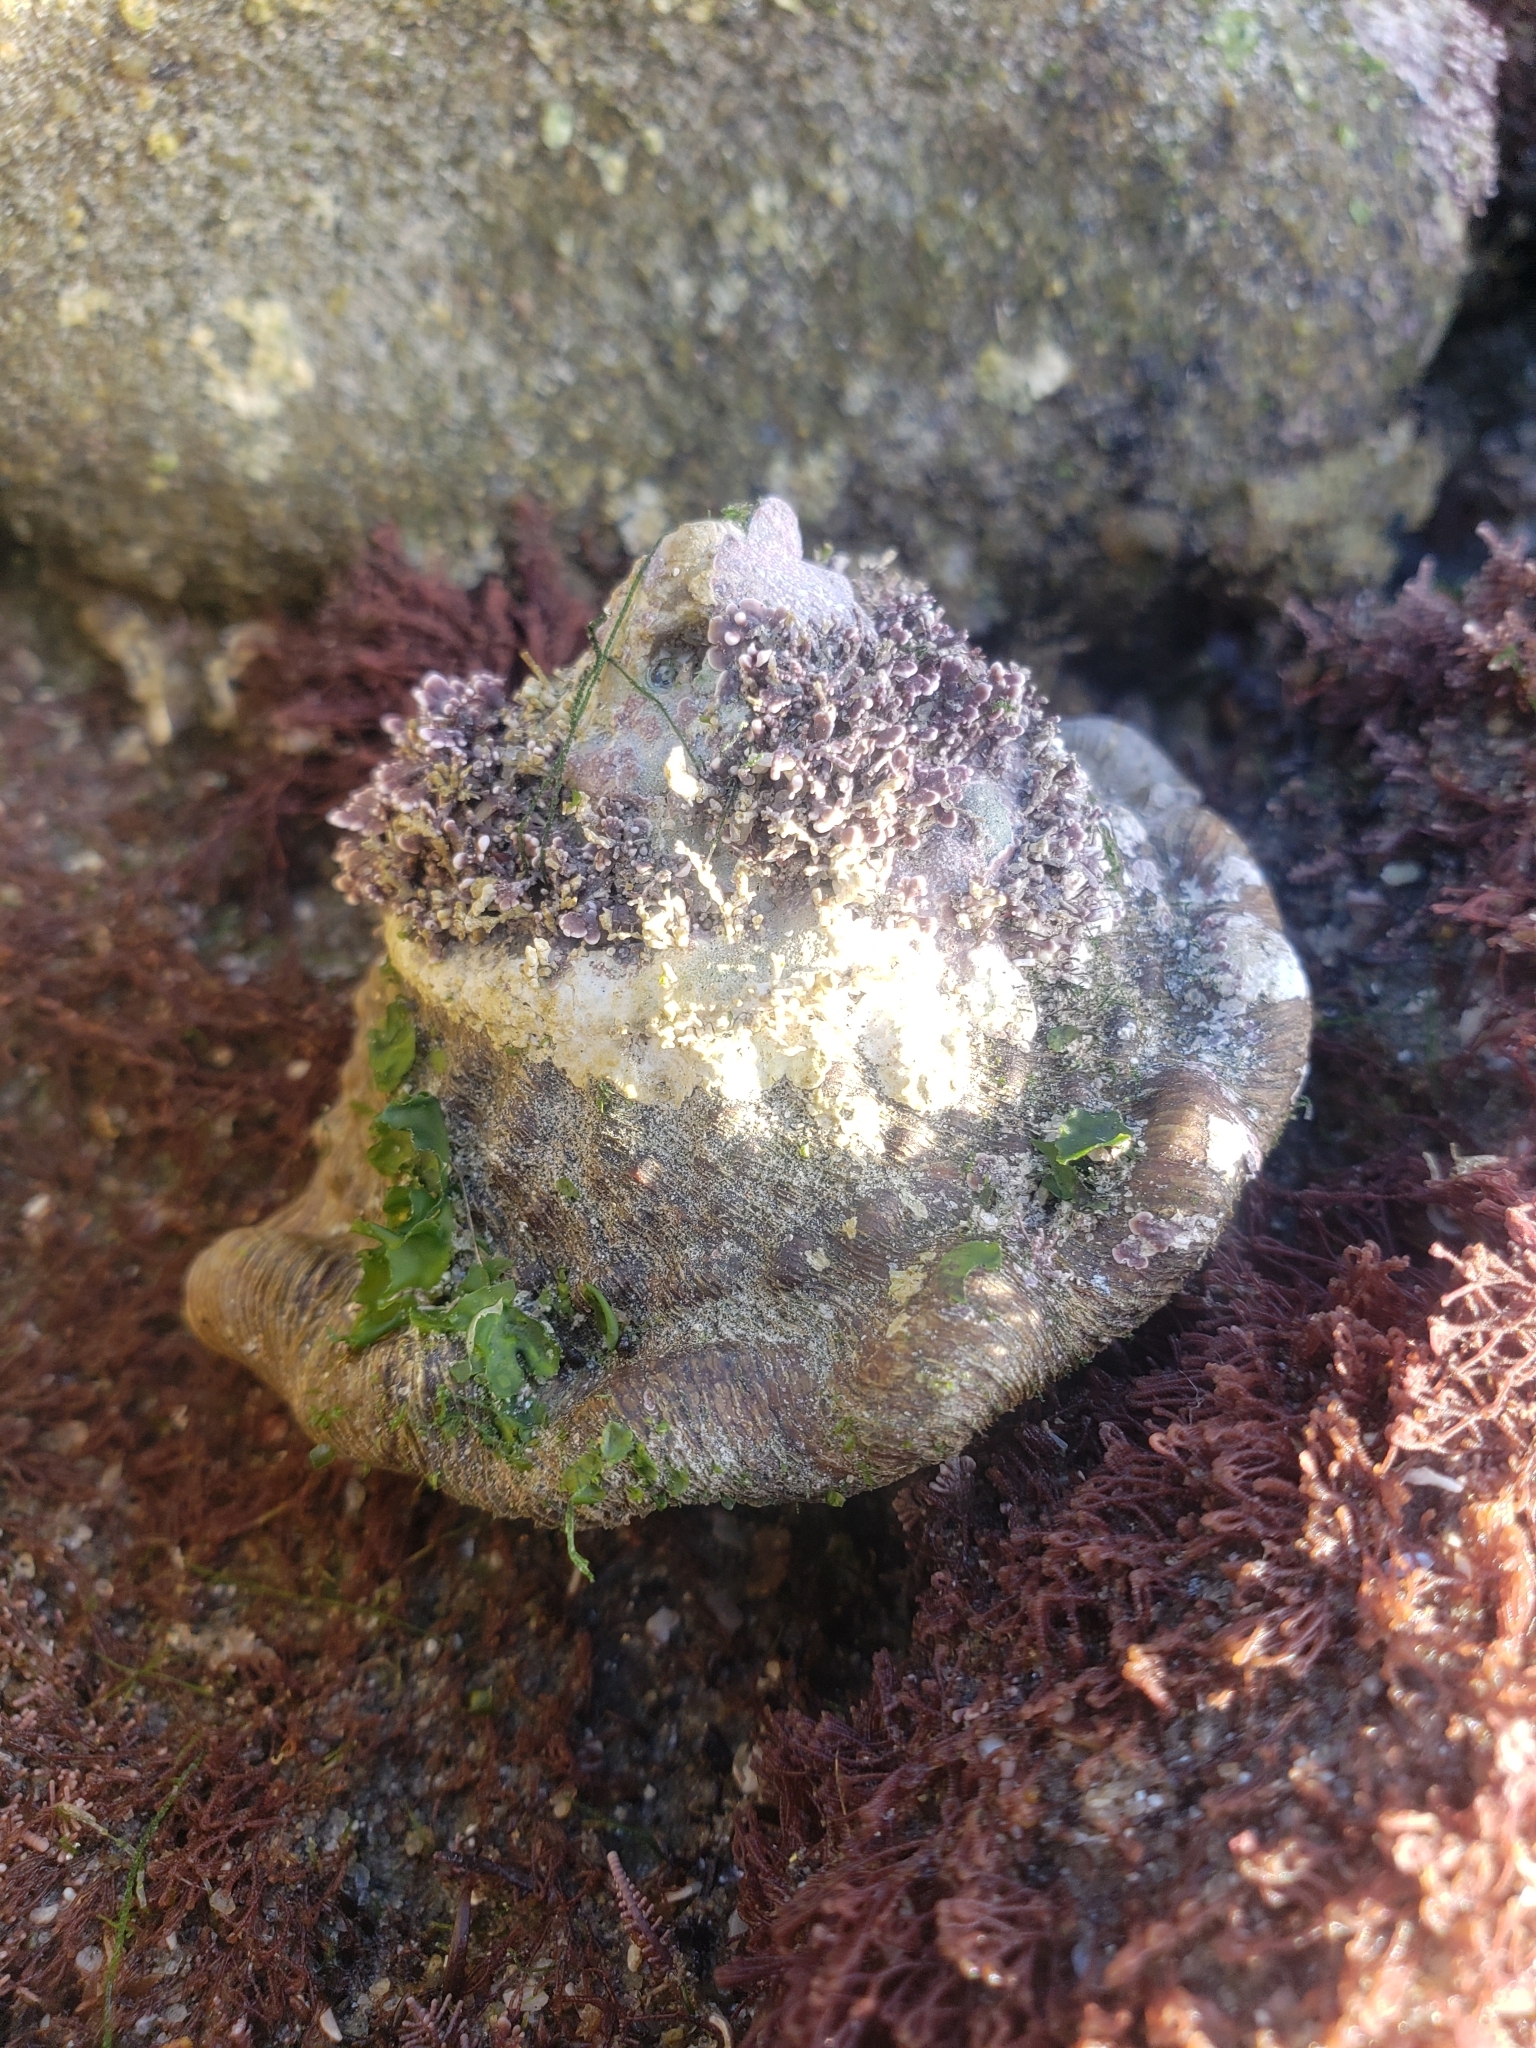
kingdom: Animalia
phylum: Mollusca
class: Gastropoda
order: Trochida
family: Turbinidae
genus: Megastraea
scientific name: Megastraea undosa
